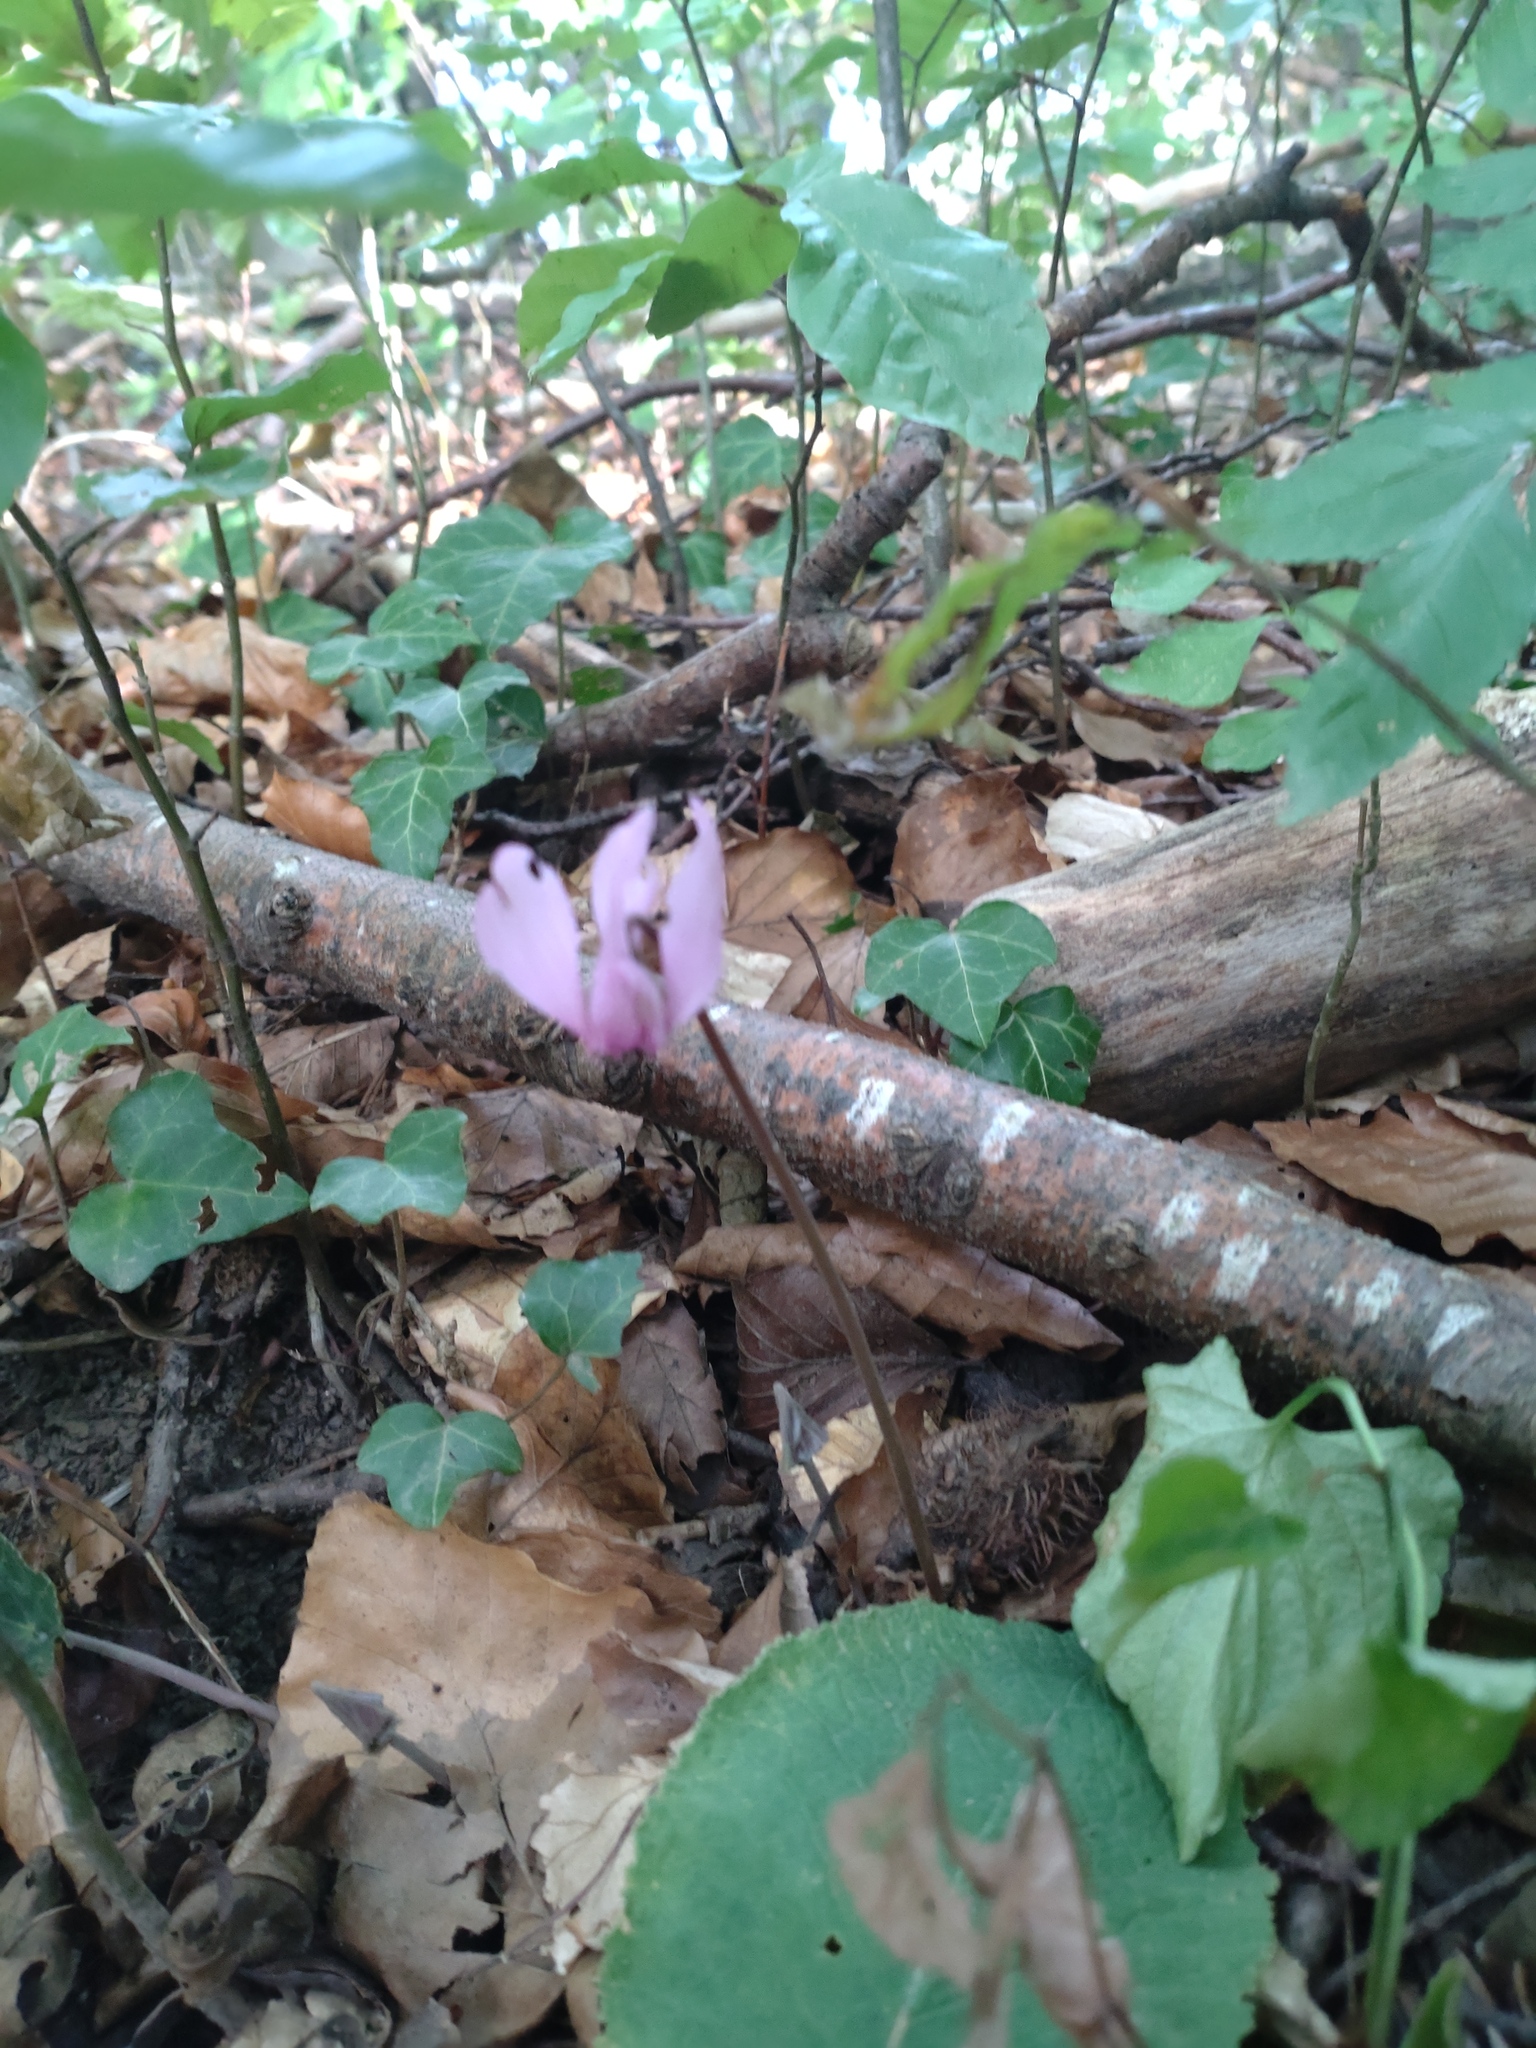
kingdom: Plantae
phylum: Tracheophyta
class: Magnoliopsida
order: Ericales
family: Primulaceae
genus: Cyclamen
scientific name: Cyclamen purpurascens
